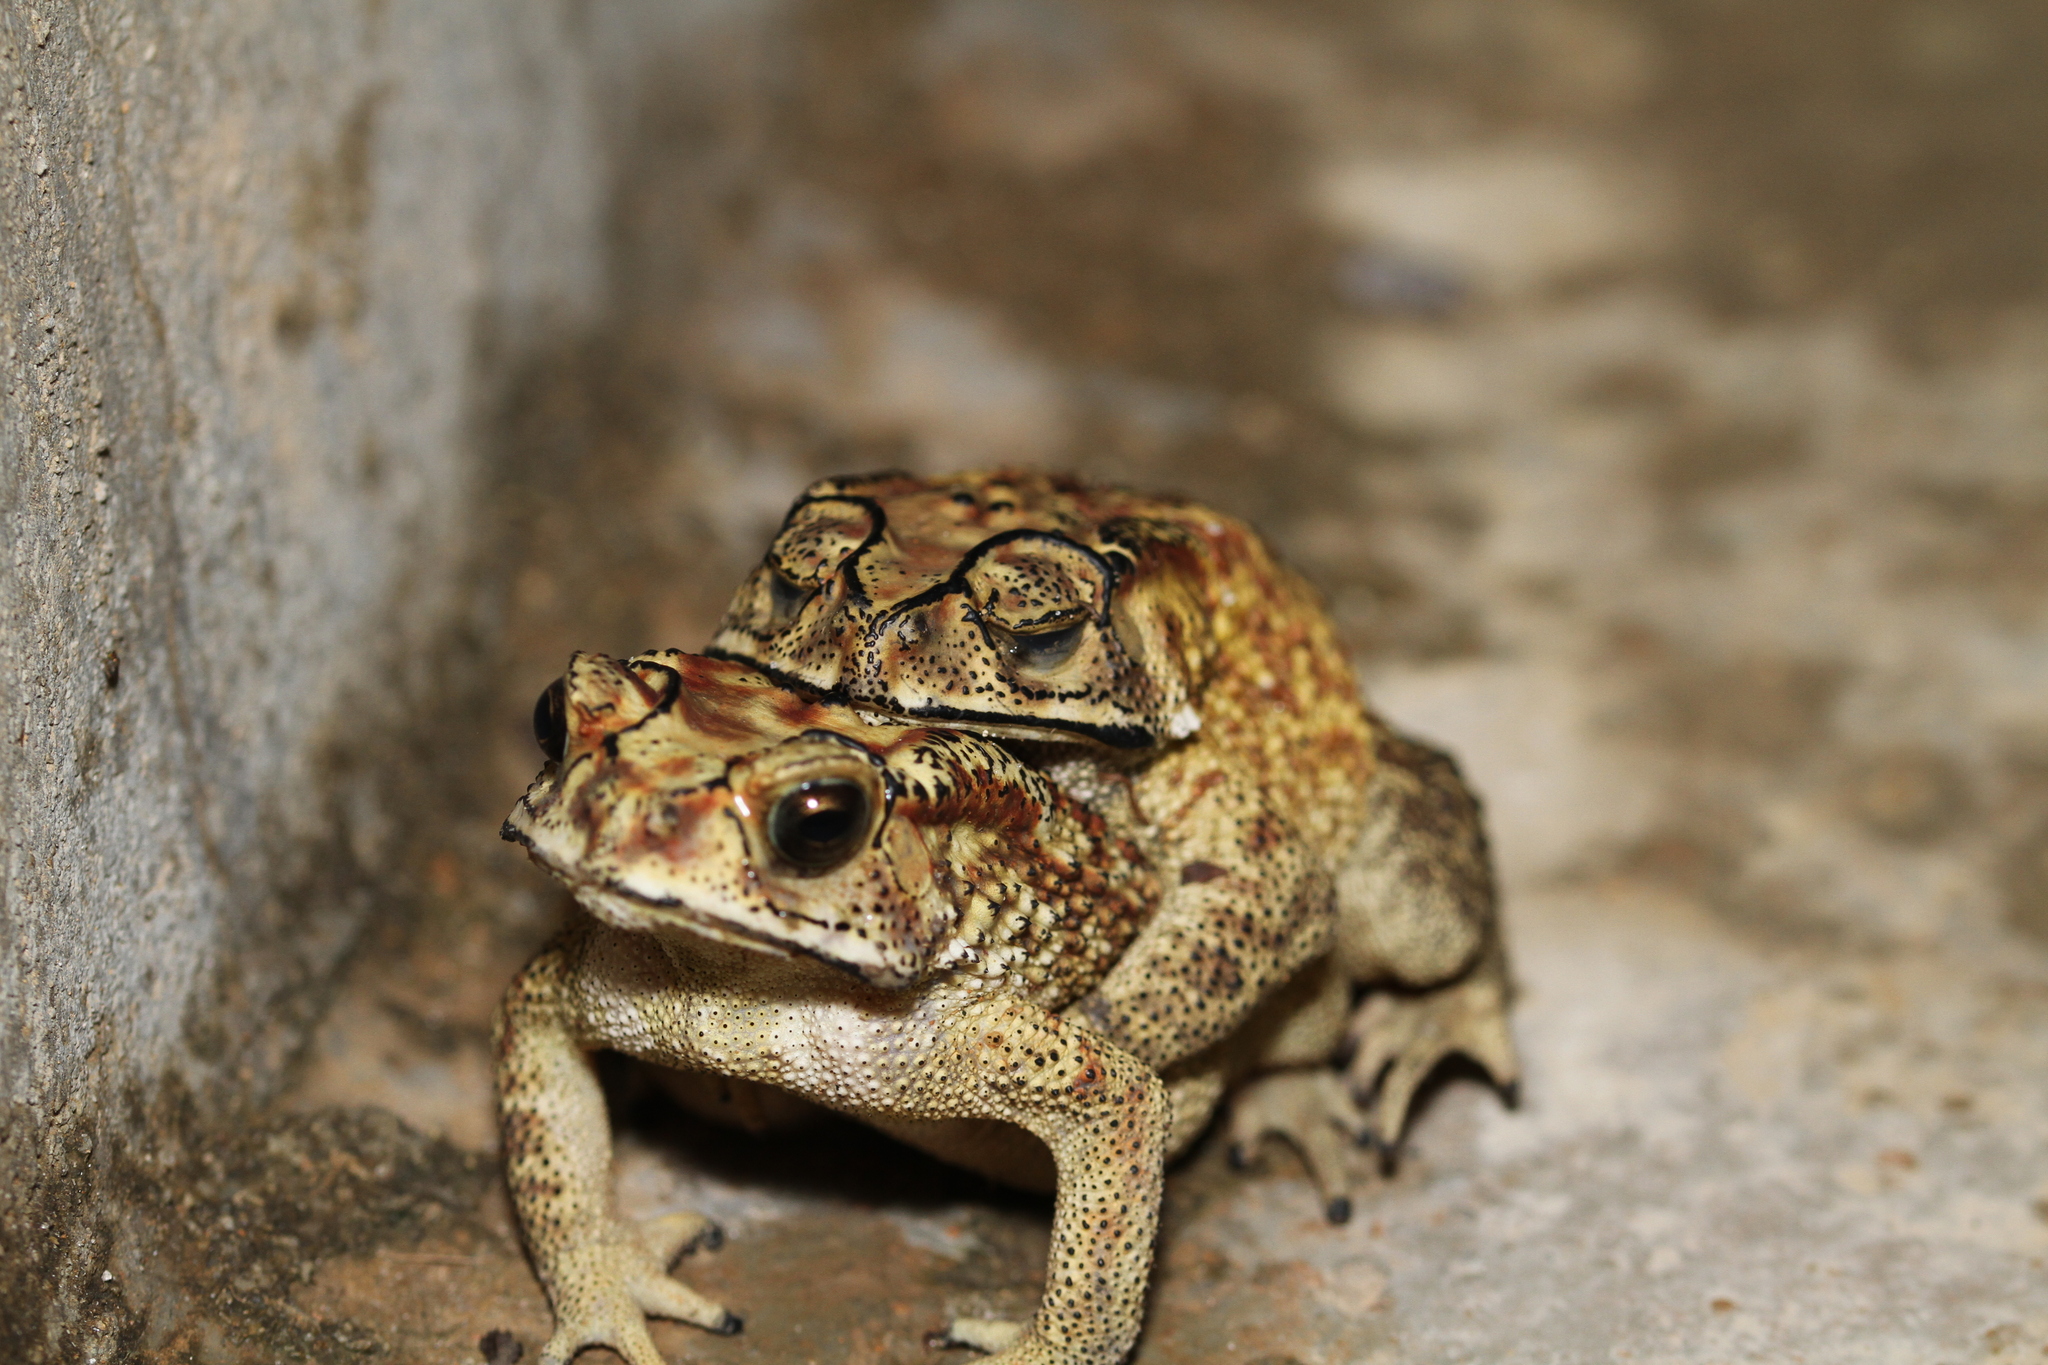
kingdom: Animalia
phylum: Chordata
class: Amphibia
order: Anura
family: Bufonidae
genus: Duttaphrynus
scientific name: Duttaphrynus melanostictus
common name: Common sunda toad
